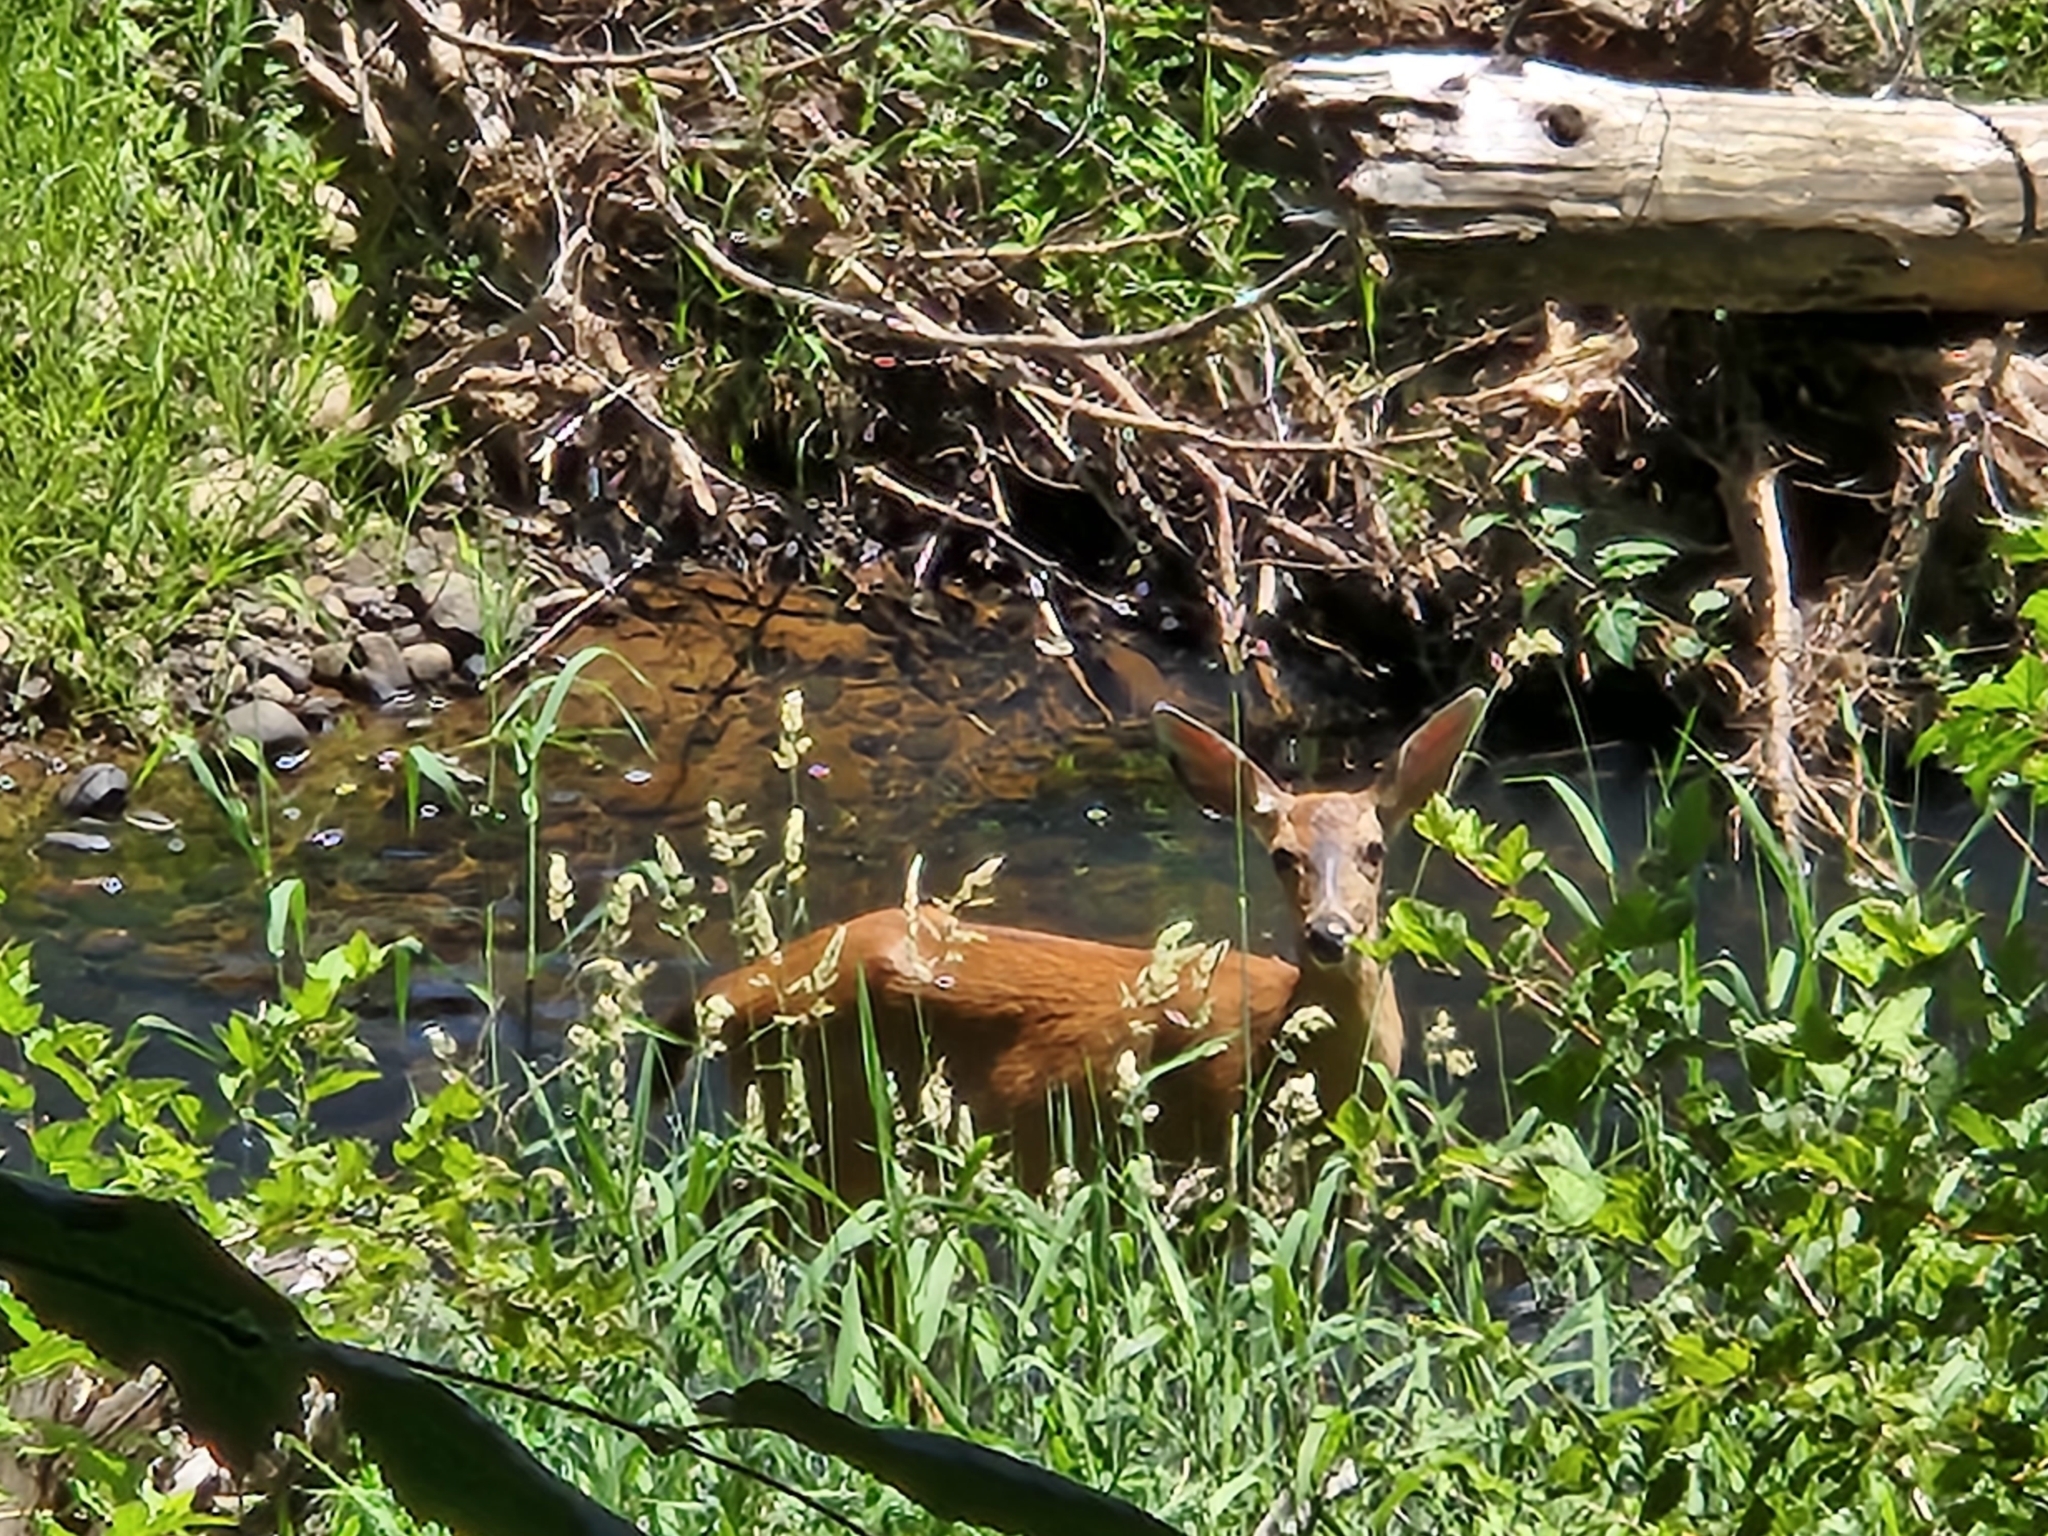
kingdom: Animalia
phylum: Chordata
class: Mammalia
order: Artiodactyla
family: Cervidae
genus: Odocoileus
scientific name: Odocoileus hemionus
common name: Mule deer
